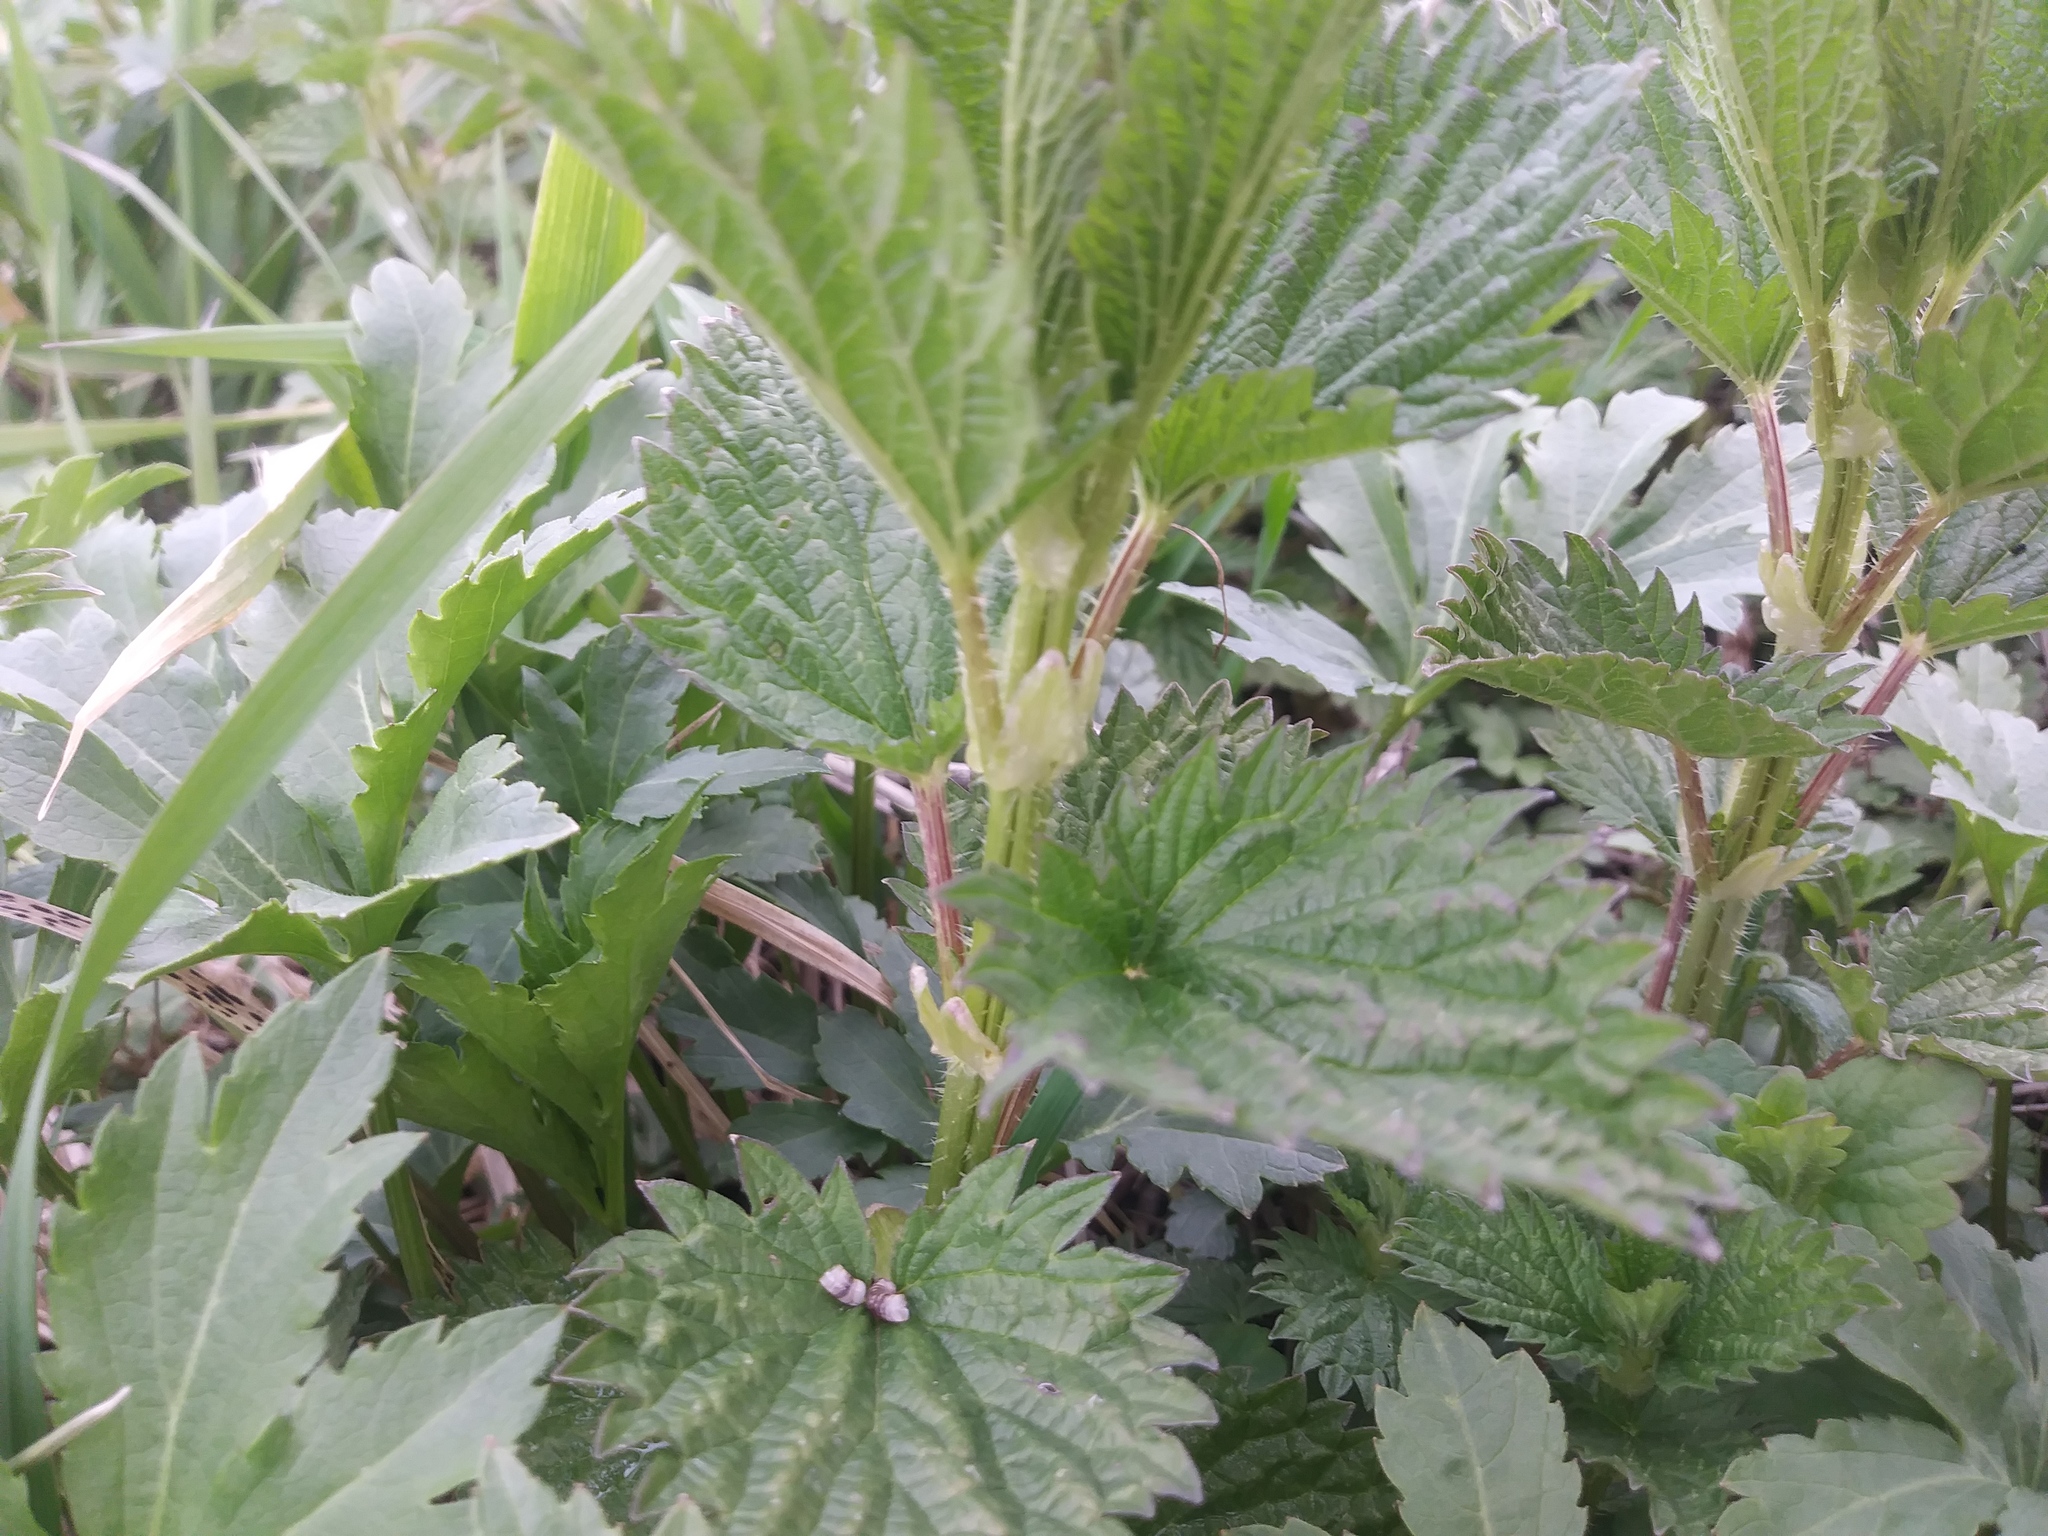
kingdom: Plantae
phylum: Tracheophyta
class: Magnoliopsida
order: Rosales
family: Urticaceae
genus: Urtica
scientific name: Urtica dioica
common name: Common nettle
